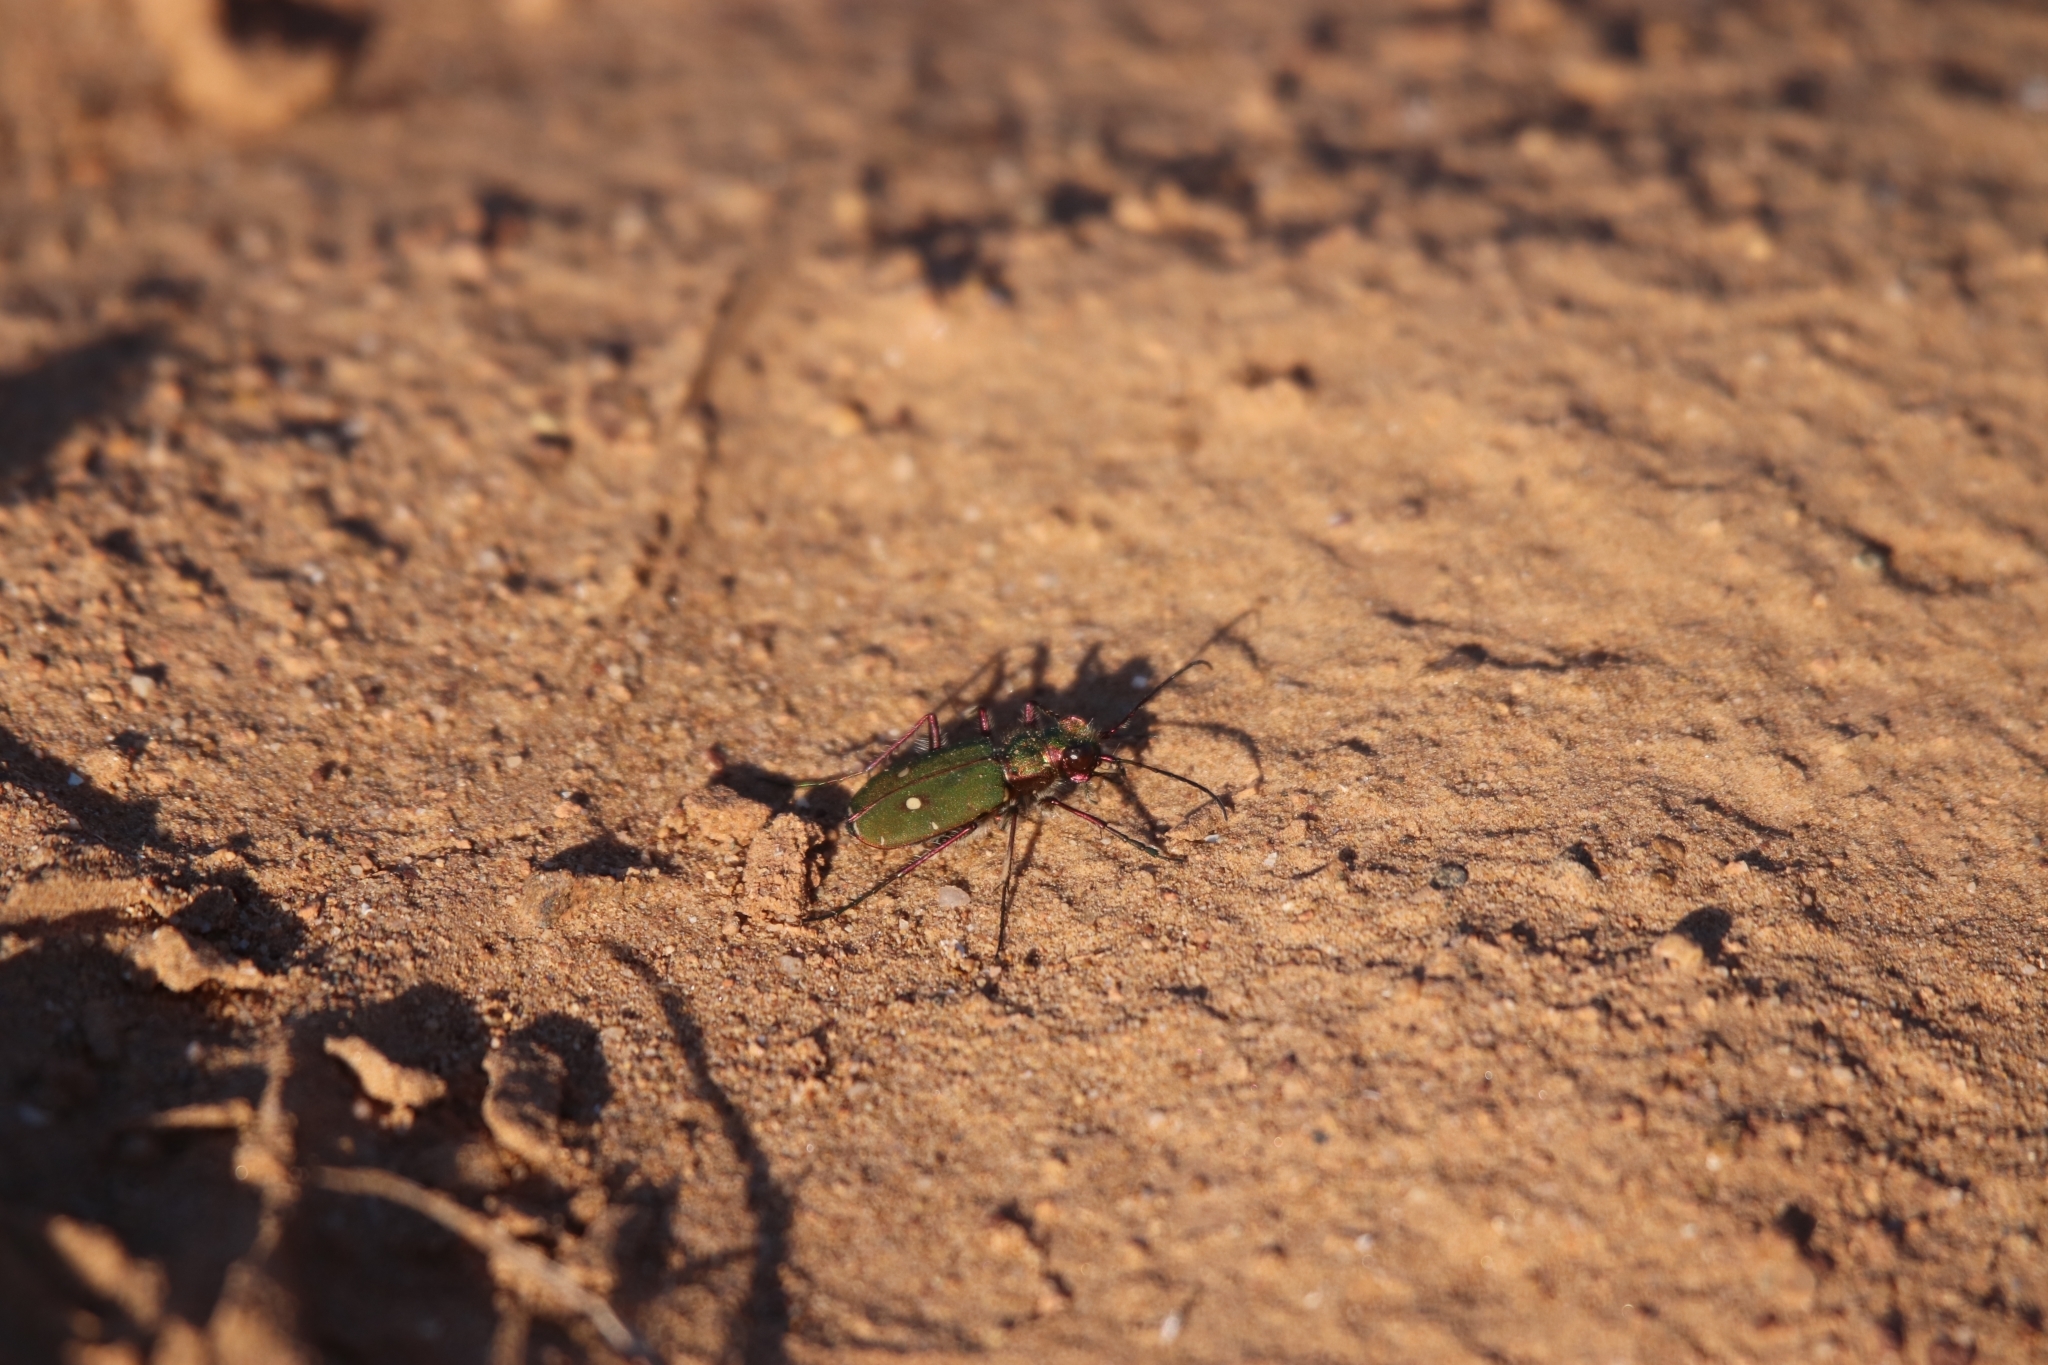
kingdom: Animalia
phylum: Arthropoda
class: Insecta
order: Coleoptera
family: Carabidae
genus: Cicindela
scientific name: Cicindela campestris
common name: Common tiger beetle
